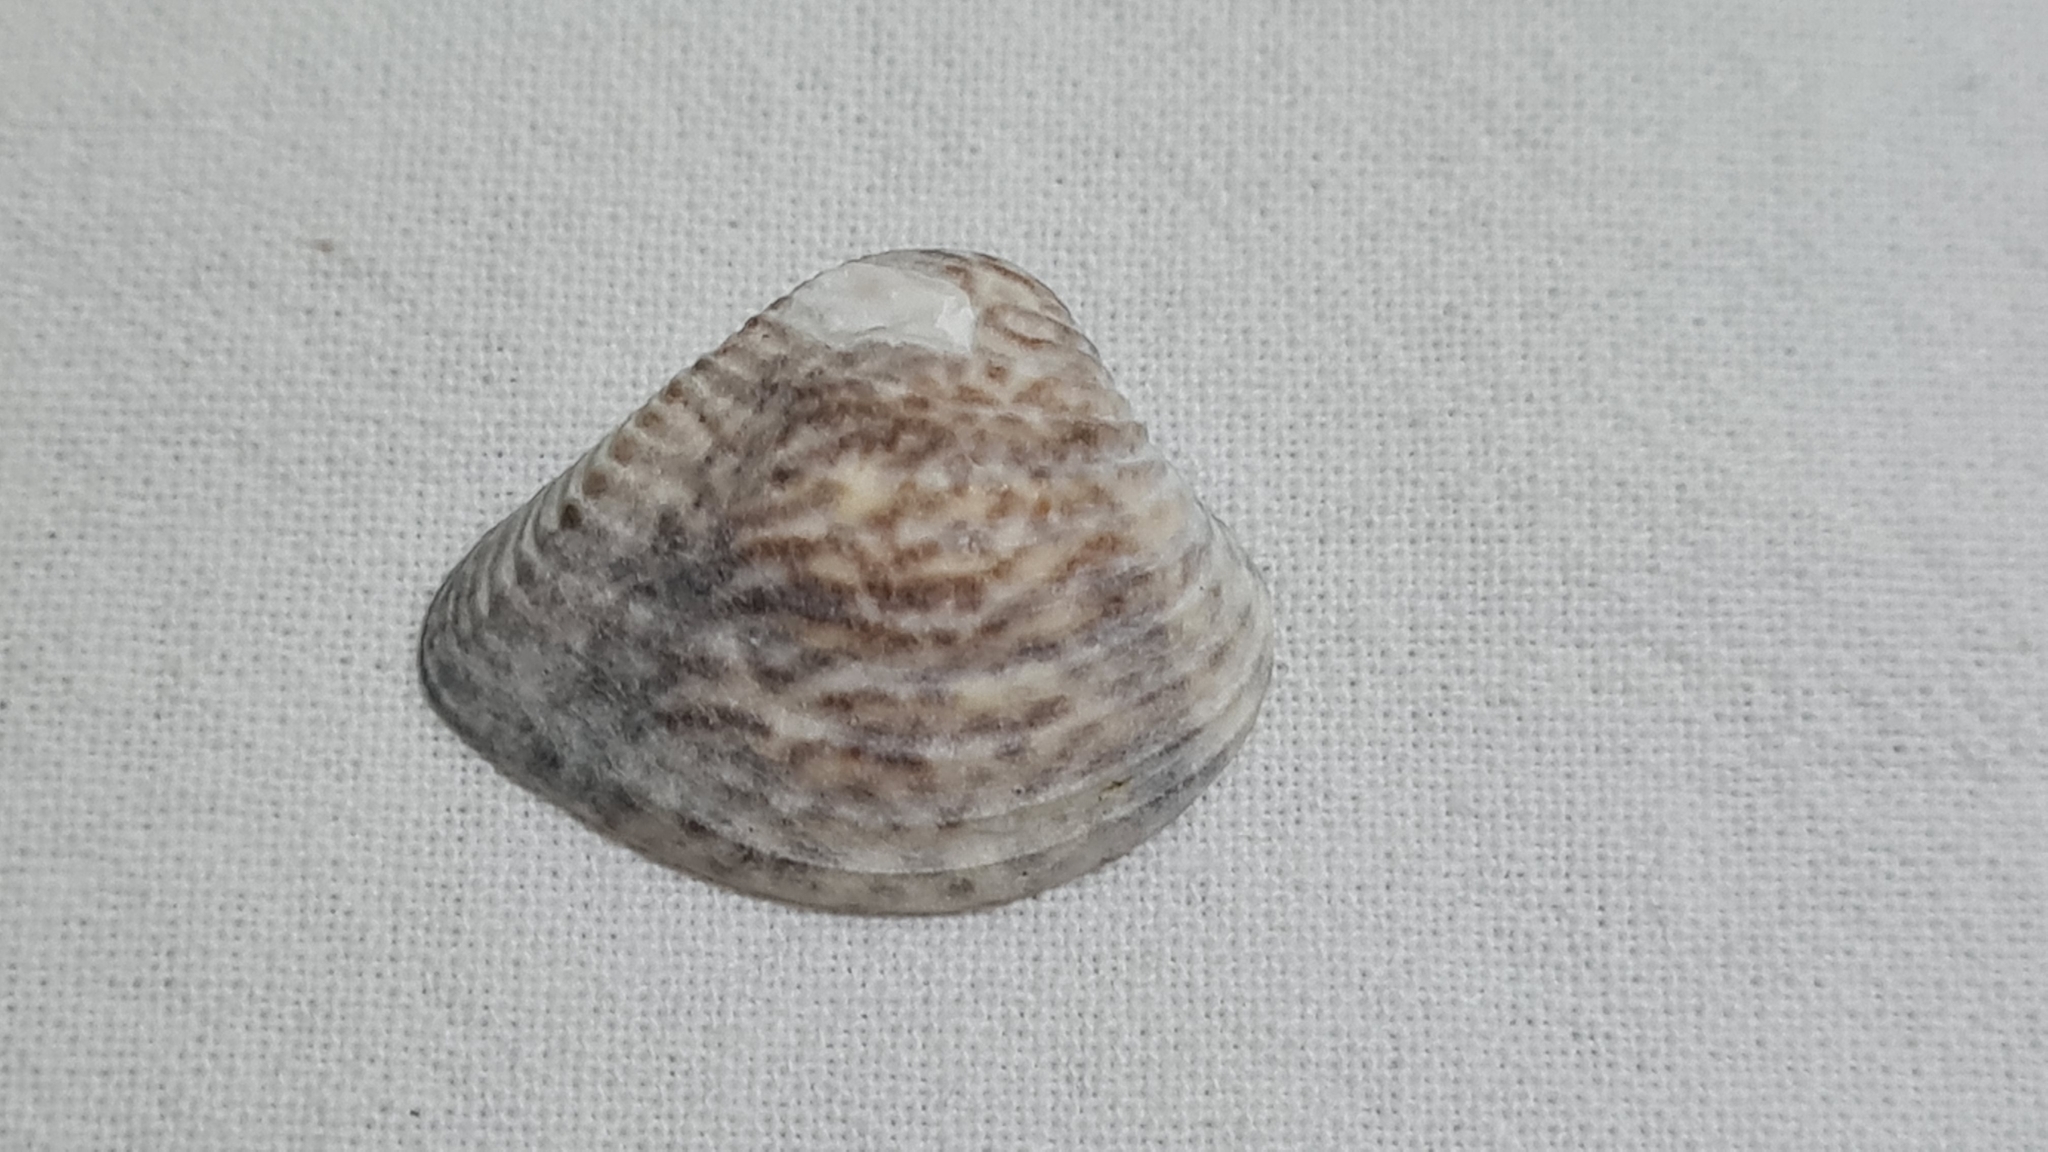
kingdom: Animalia
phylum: Mollusca
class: Bivalvia
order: Venerida
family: Veneridae
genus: Anomalocardia
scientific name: Anomalocardia flexuosa
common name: Carib pointed venus
